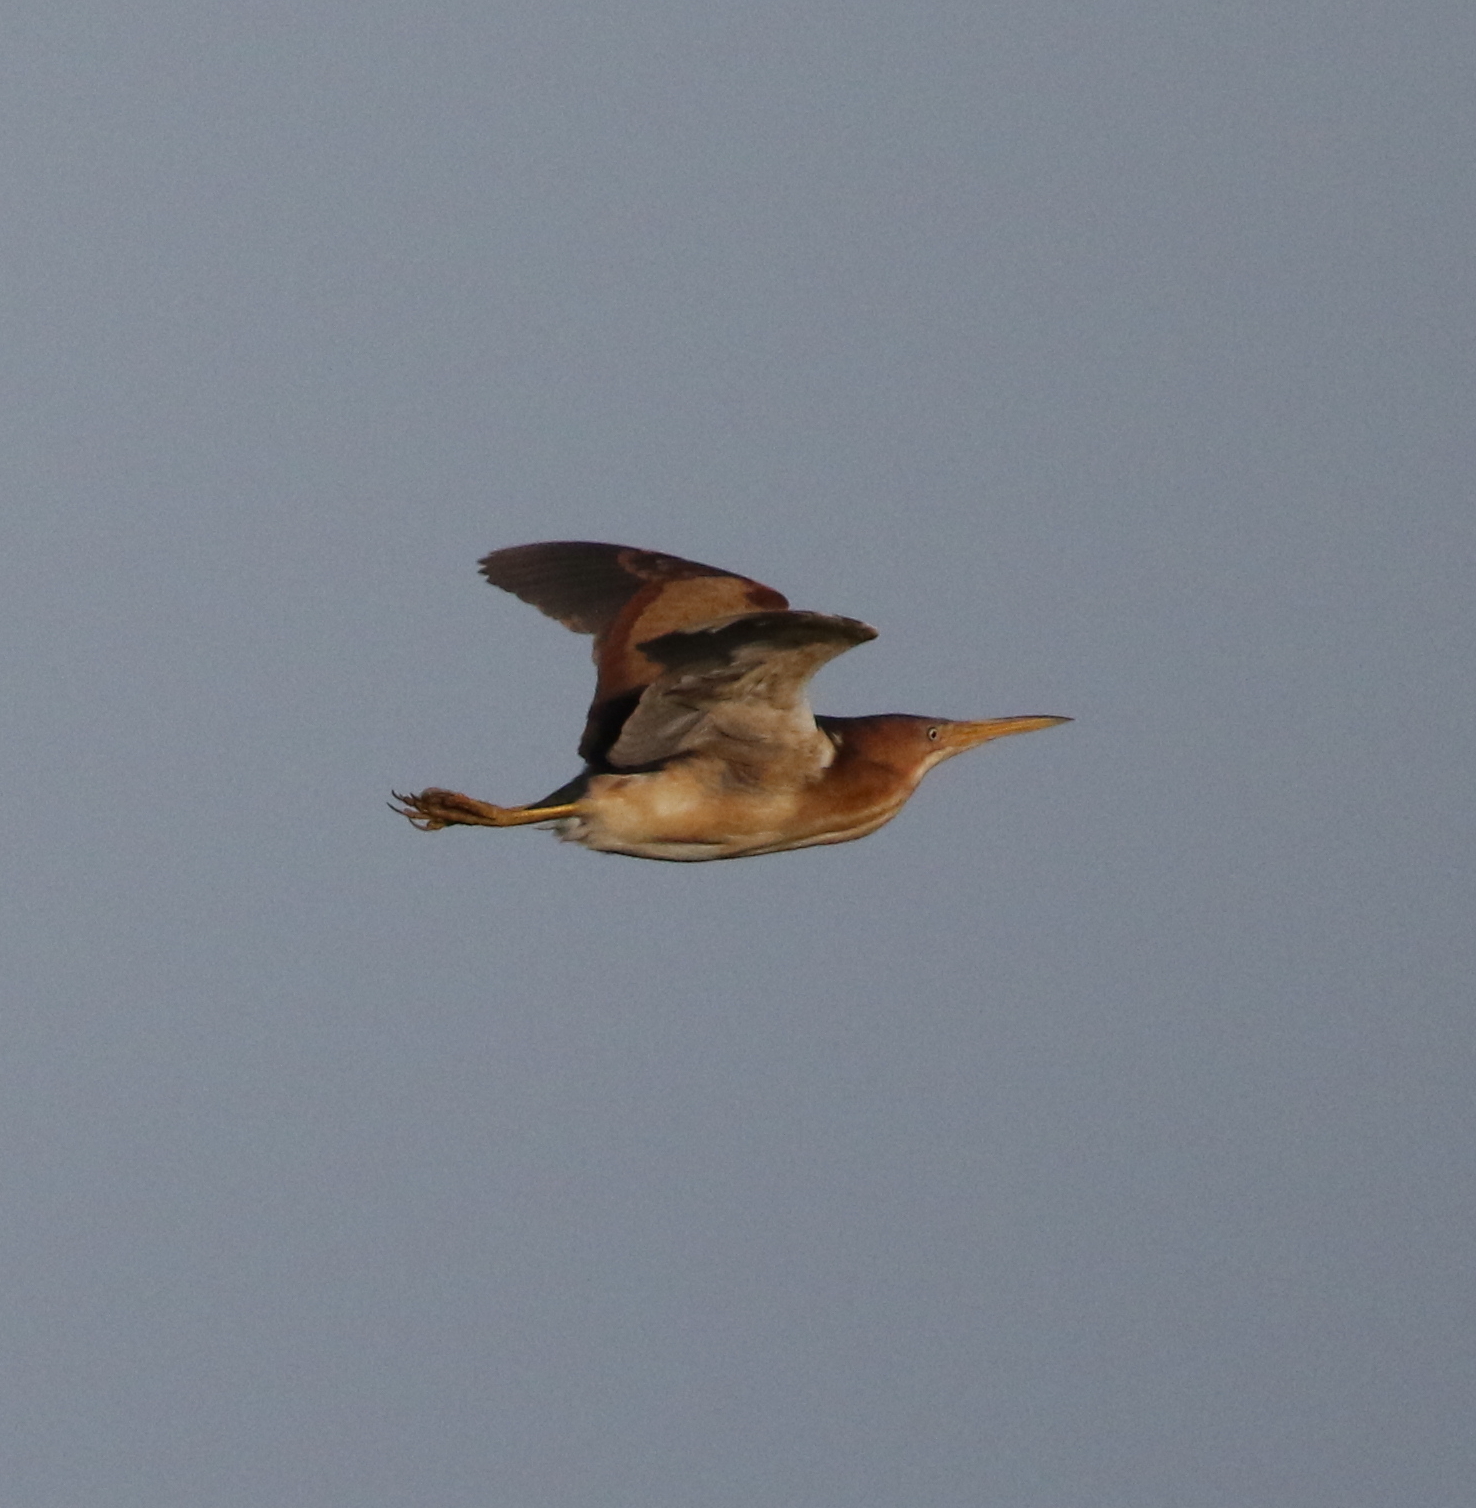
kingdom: Animalia
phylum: Chordata
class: Aves
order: Pelecaniformes
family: Ardeidae
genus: Ixobrychus
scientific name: Ixobrychus exilis
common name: Least bittern
